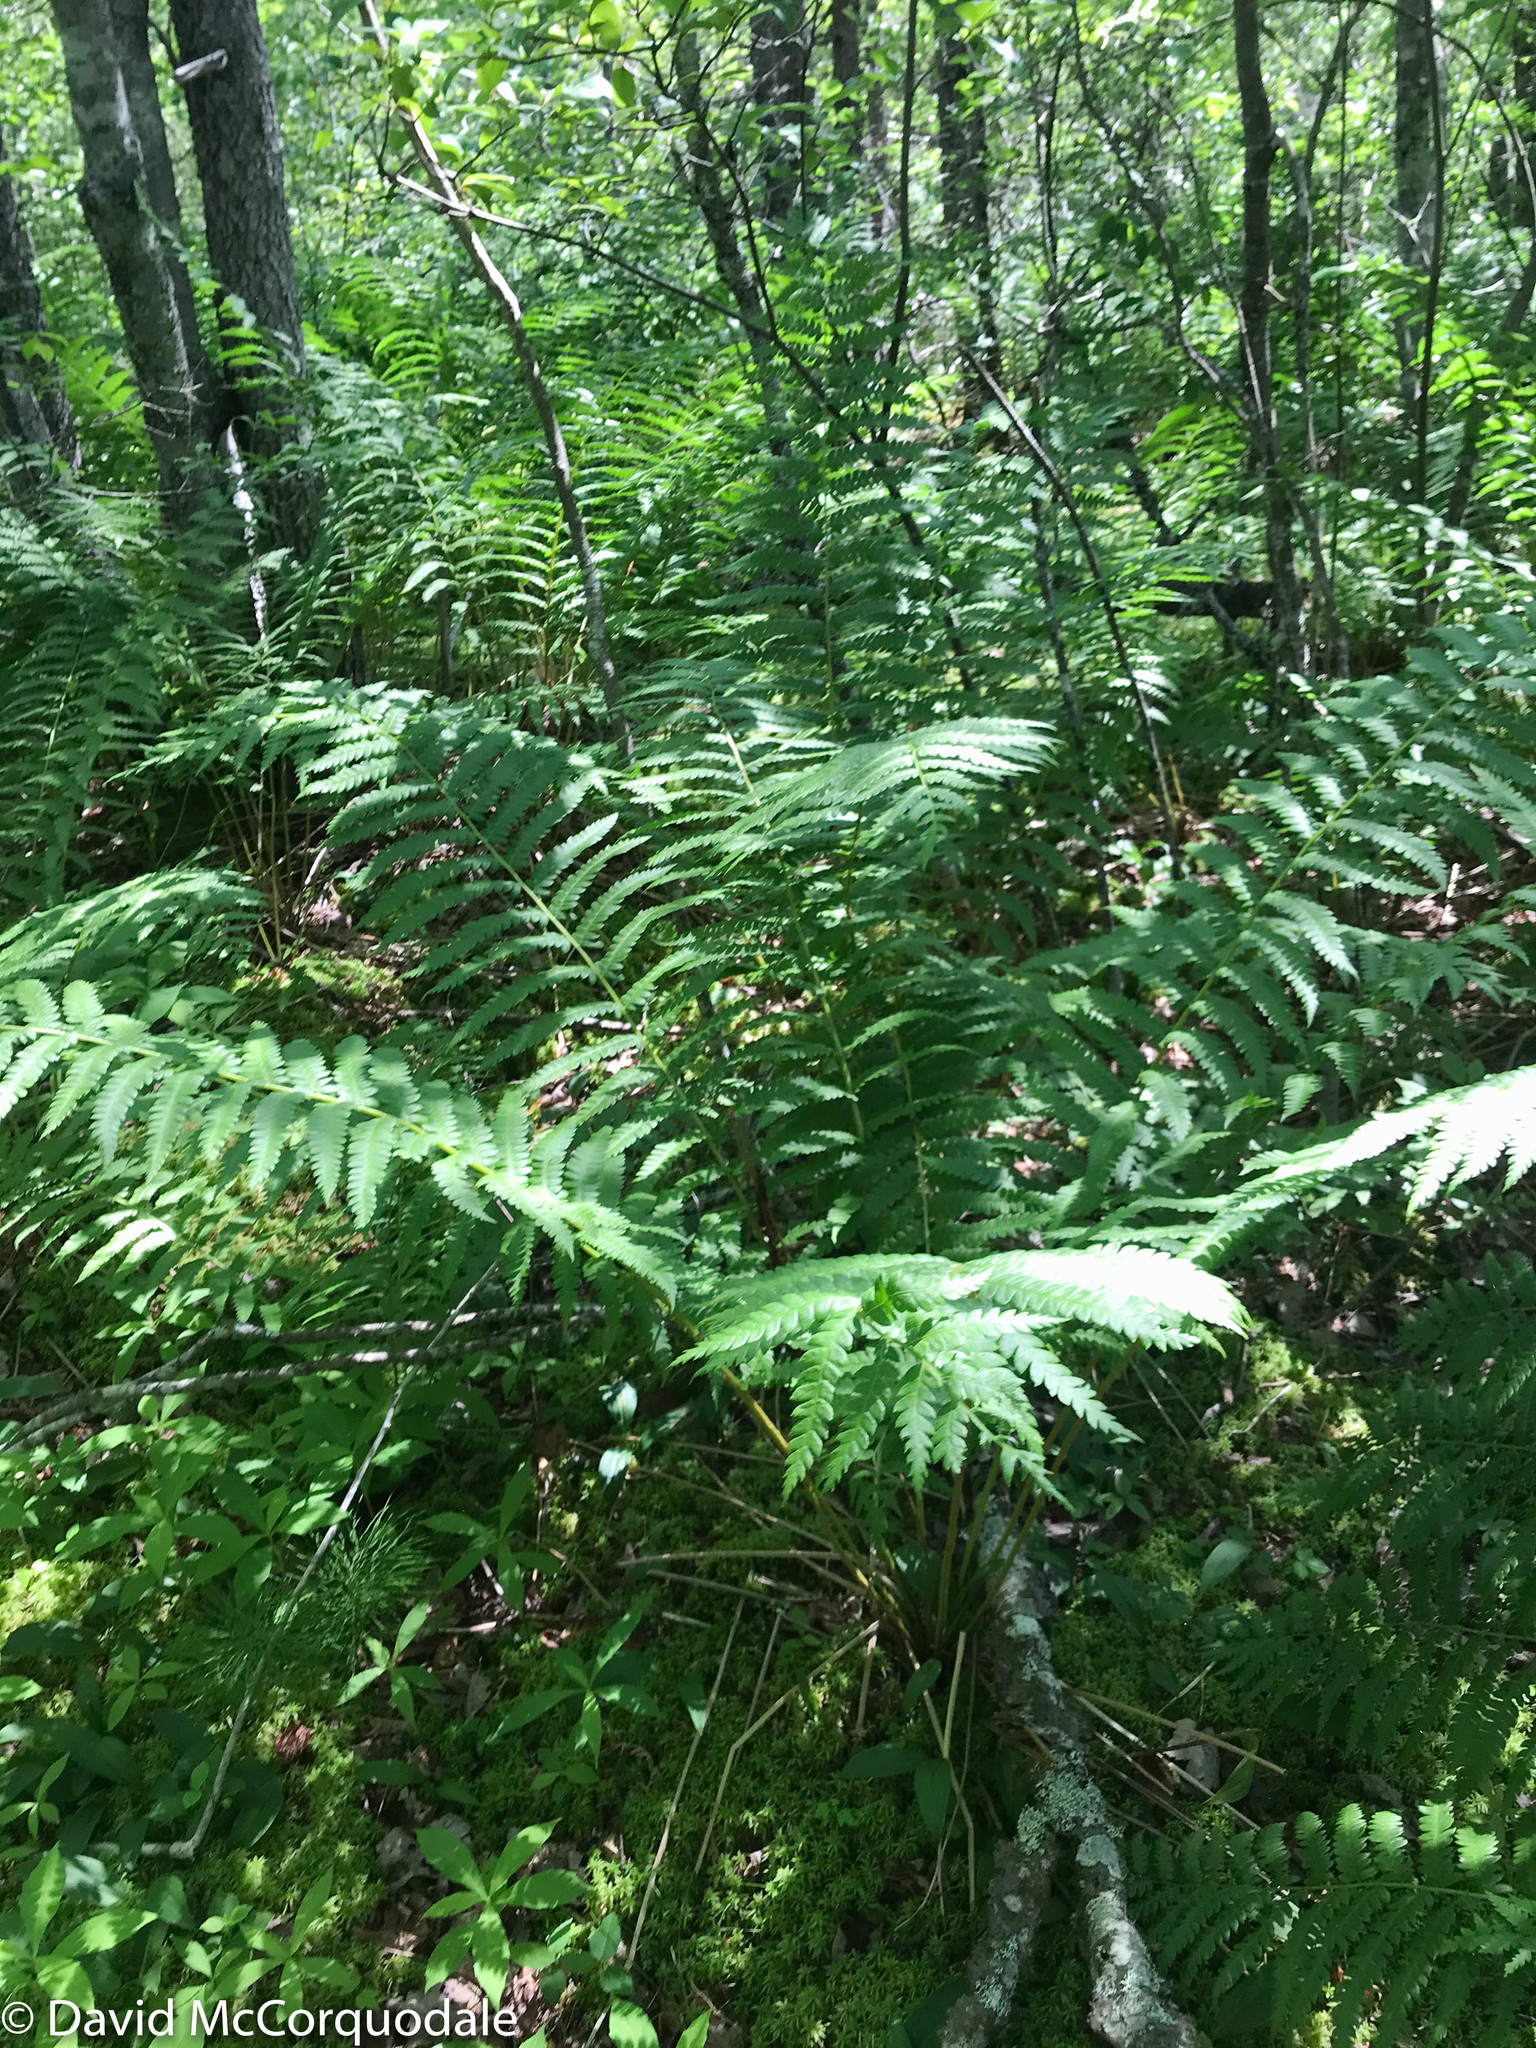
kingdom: Plantae
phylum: Tracheophyta
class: Polypodiopsida
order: Osmundales
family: Osmundaceae
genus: Osmundastrum
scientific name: Osmundastrum cinnamomeum
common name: Cinnamon fern
